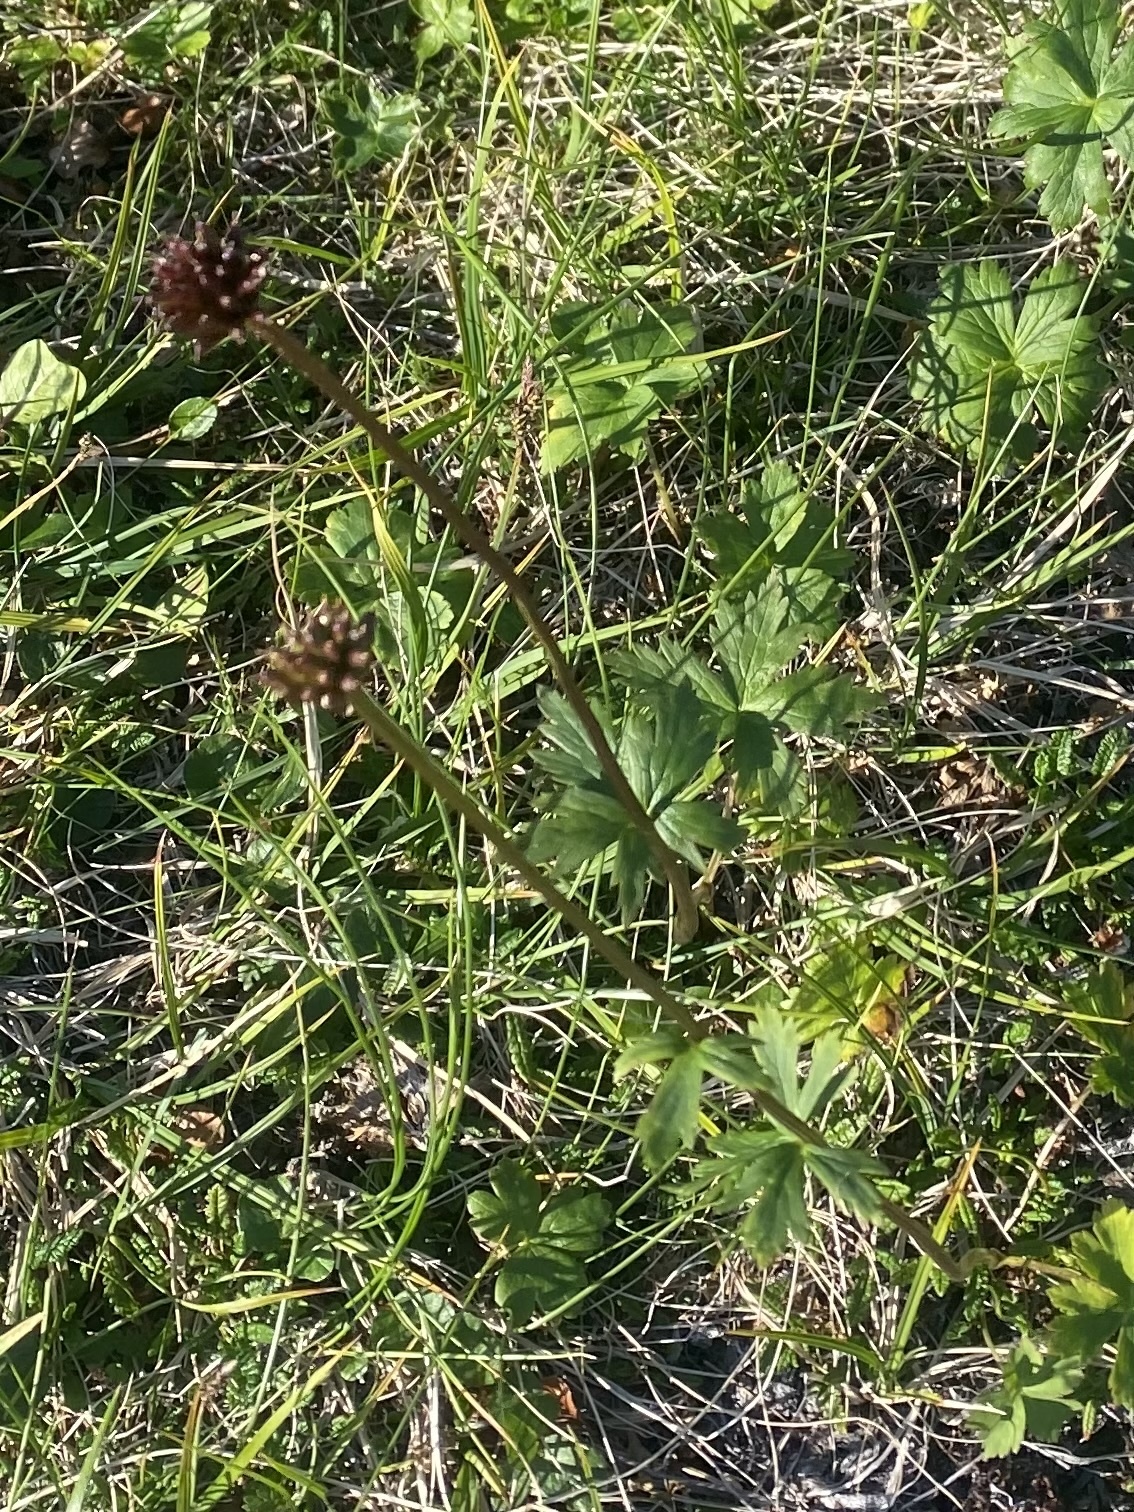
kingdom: Plantae
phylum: Tracheophyta
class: Magnoliopsida
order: Ranunculales
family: Ranunculaceae
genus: Trollius
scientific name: Trollius sibiricus
